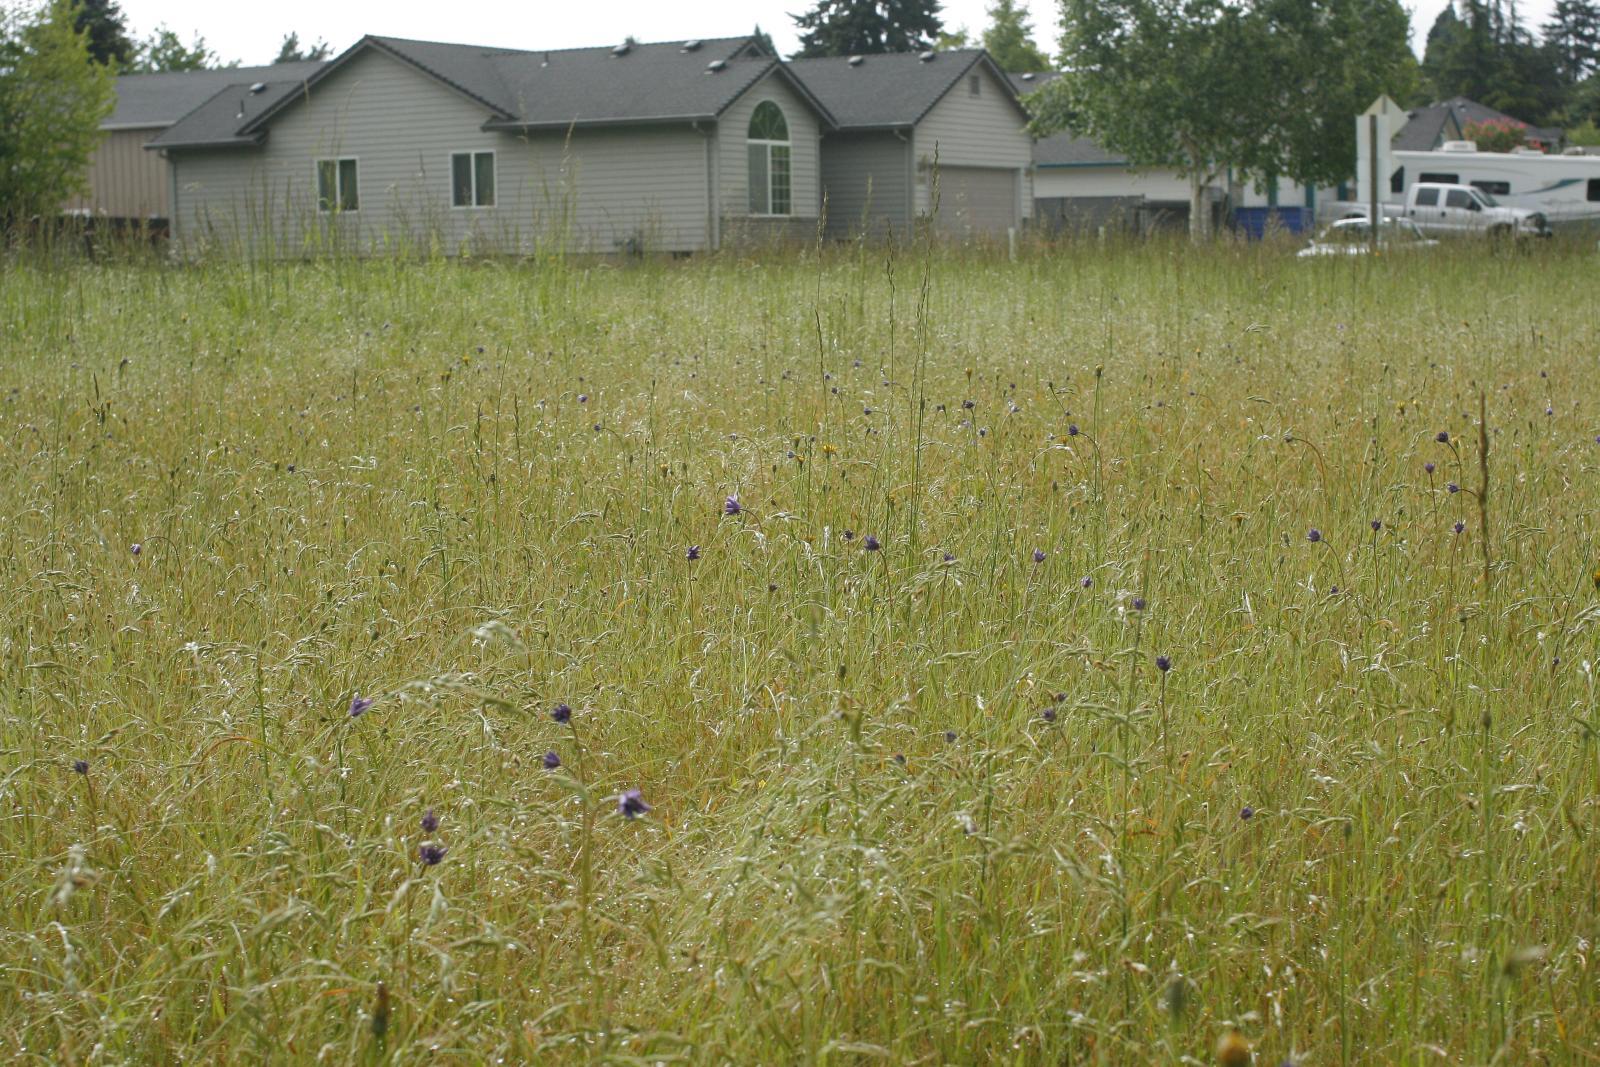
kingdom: Plantae
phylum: Tracheophyta
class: Liliopsida
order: Asparagales
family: Asparagaceae
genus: Dichelostemma
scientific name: Dichelostemma congestum
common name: Fork-tooth ookow
